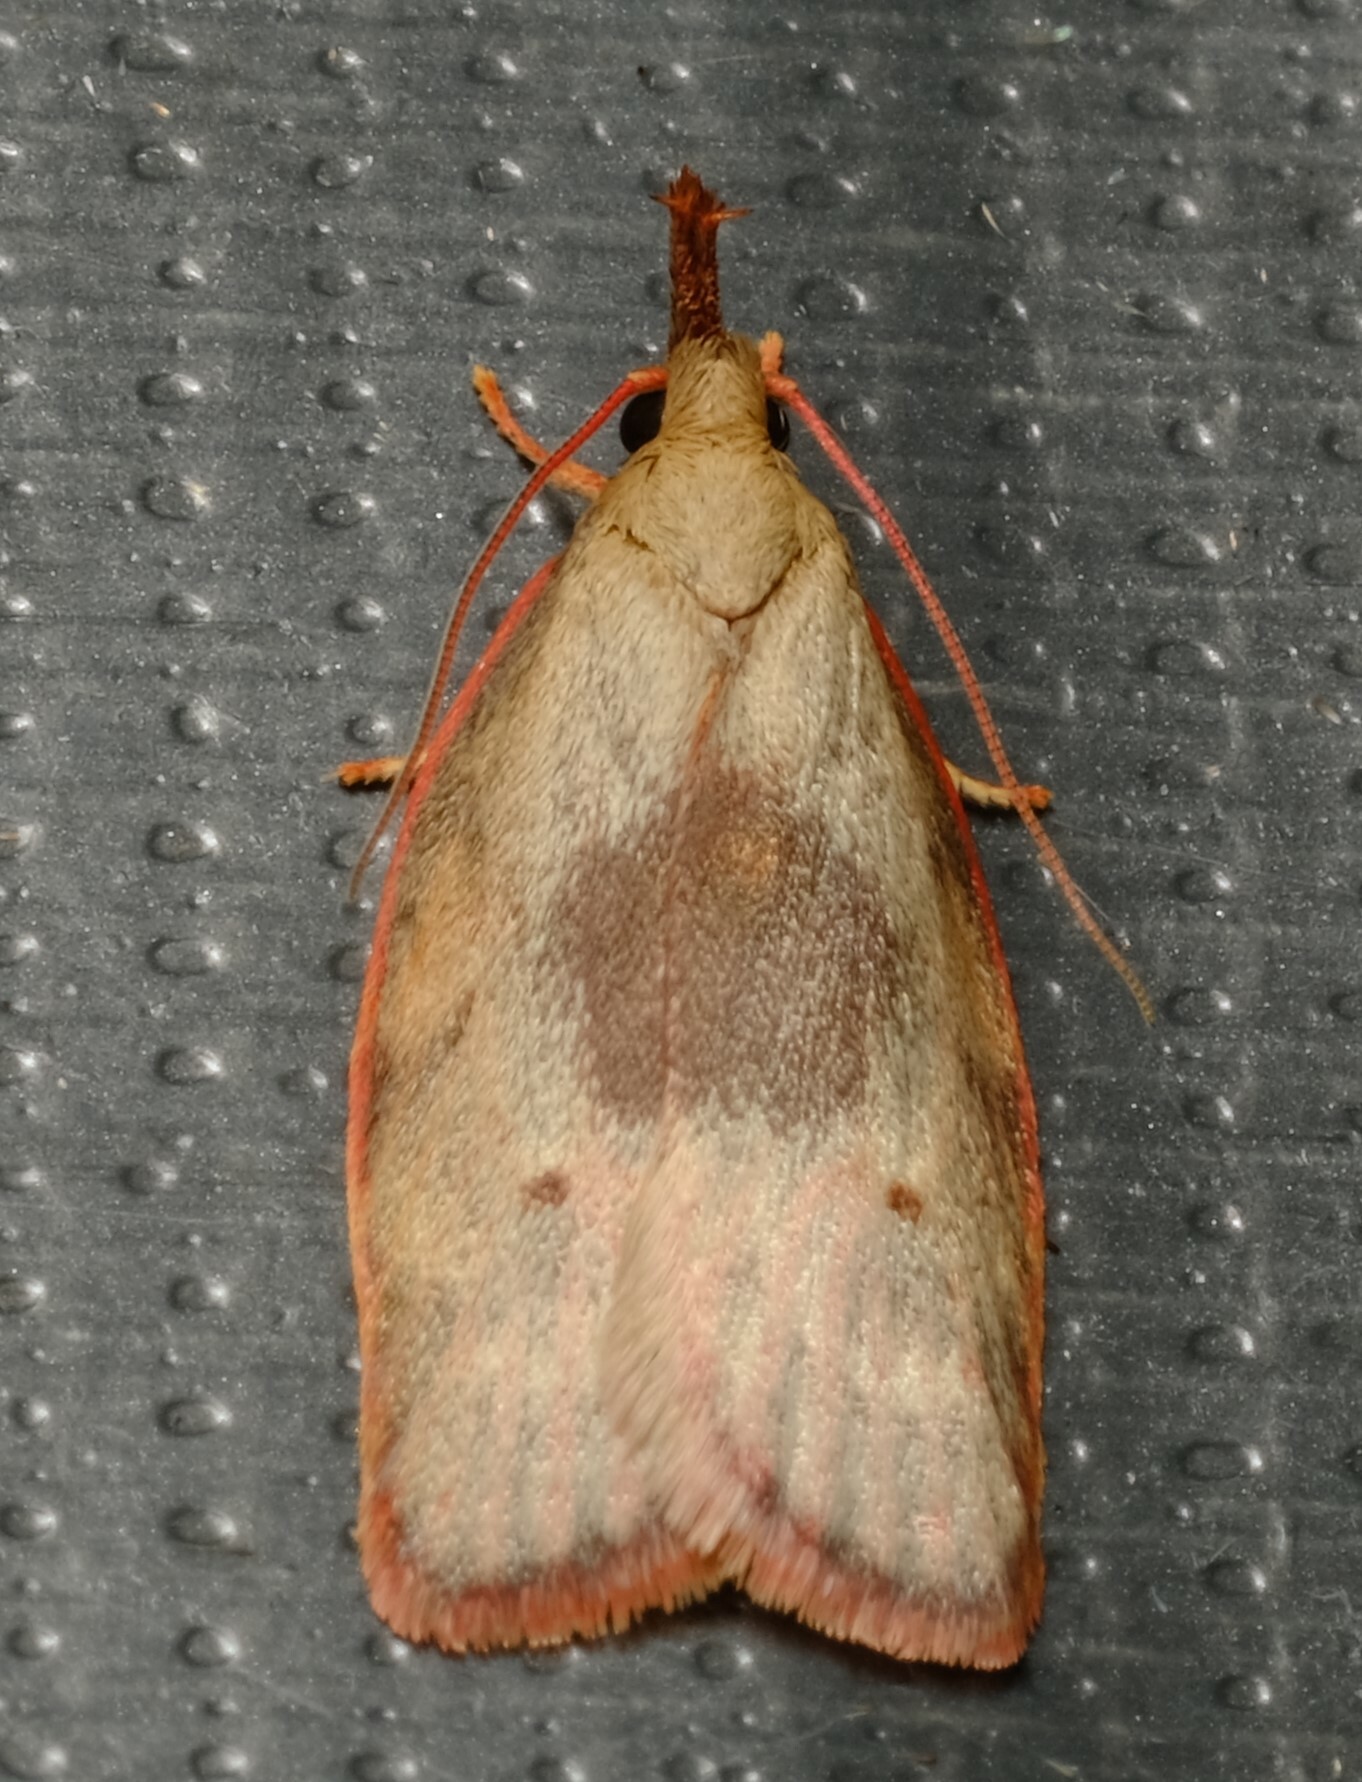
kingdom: Animalia
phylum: Arthropoda
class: Insecta
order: Lepidoptera
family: Depressariidae
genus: Enchocrates
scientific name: Enchocrates glaucopis
